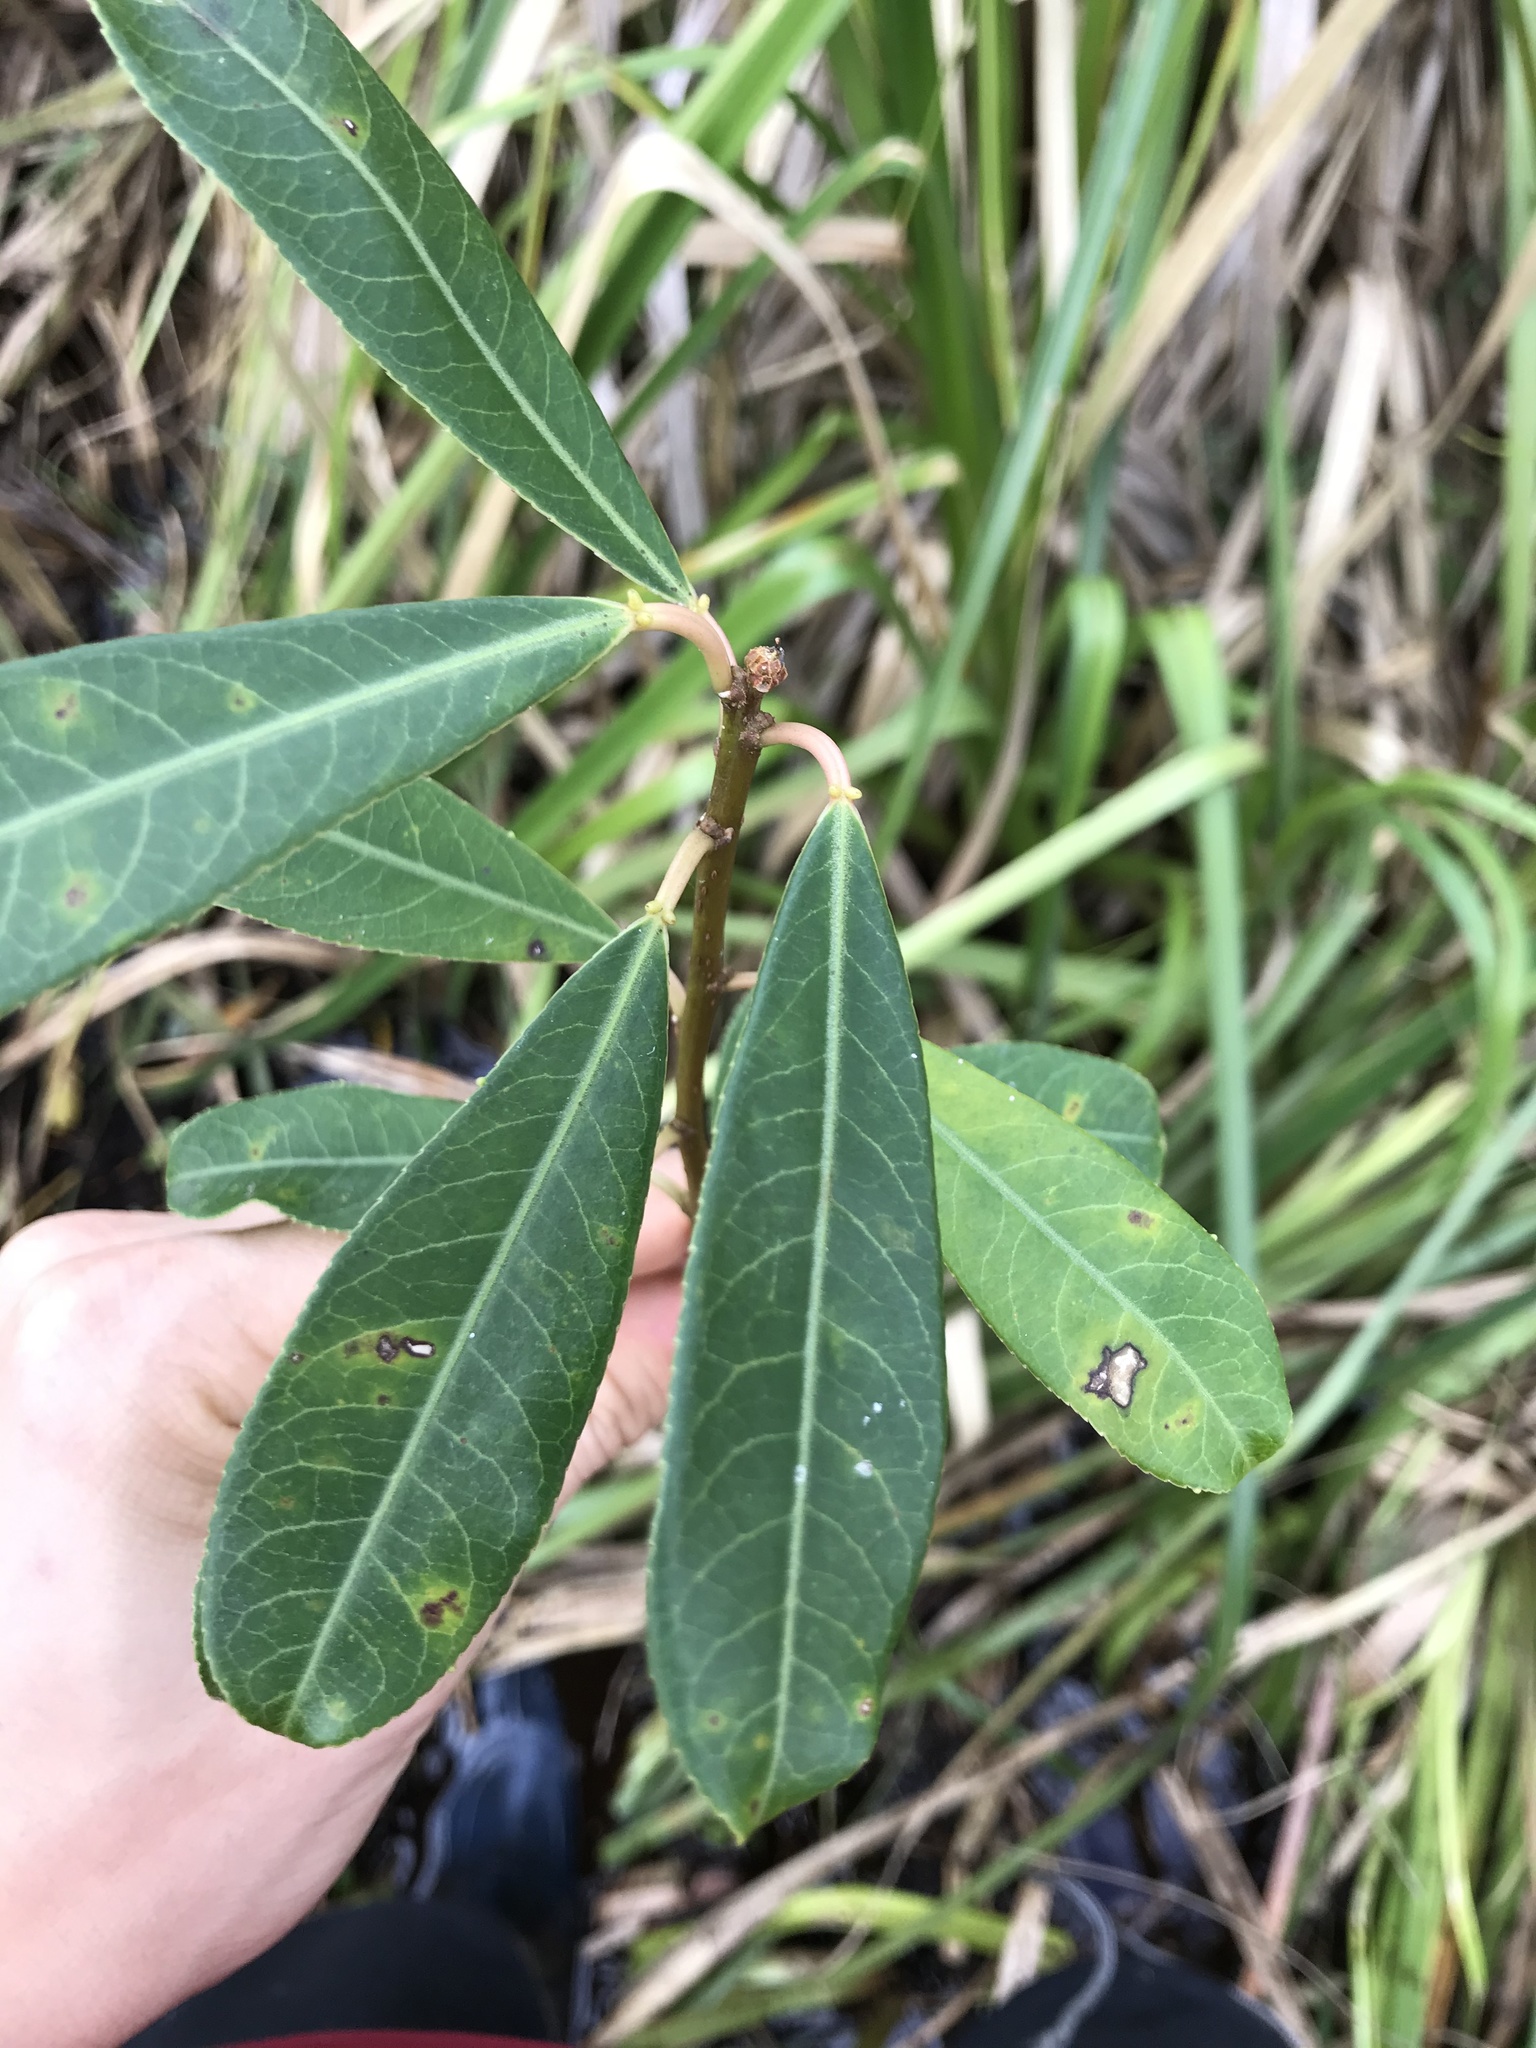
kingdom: Plantae
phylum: Tracheophyta
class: Magnoliopsida
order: Malpighiales
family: Euphorbiaceae
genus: Sapium
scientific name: Sapium glandulosum
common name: Milktree
